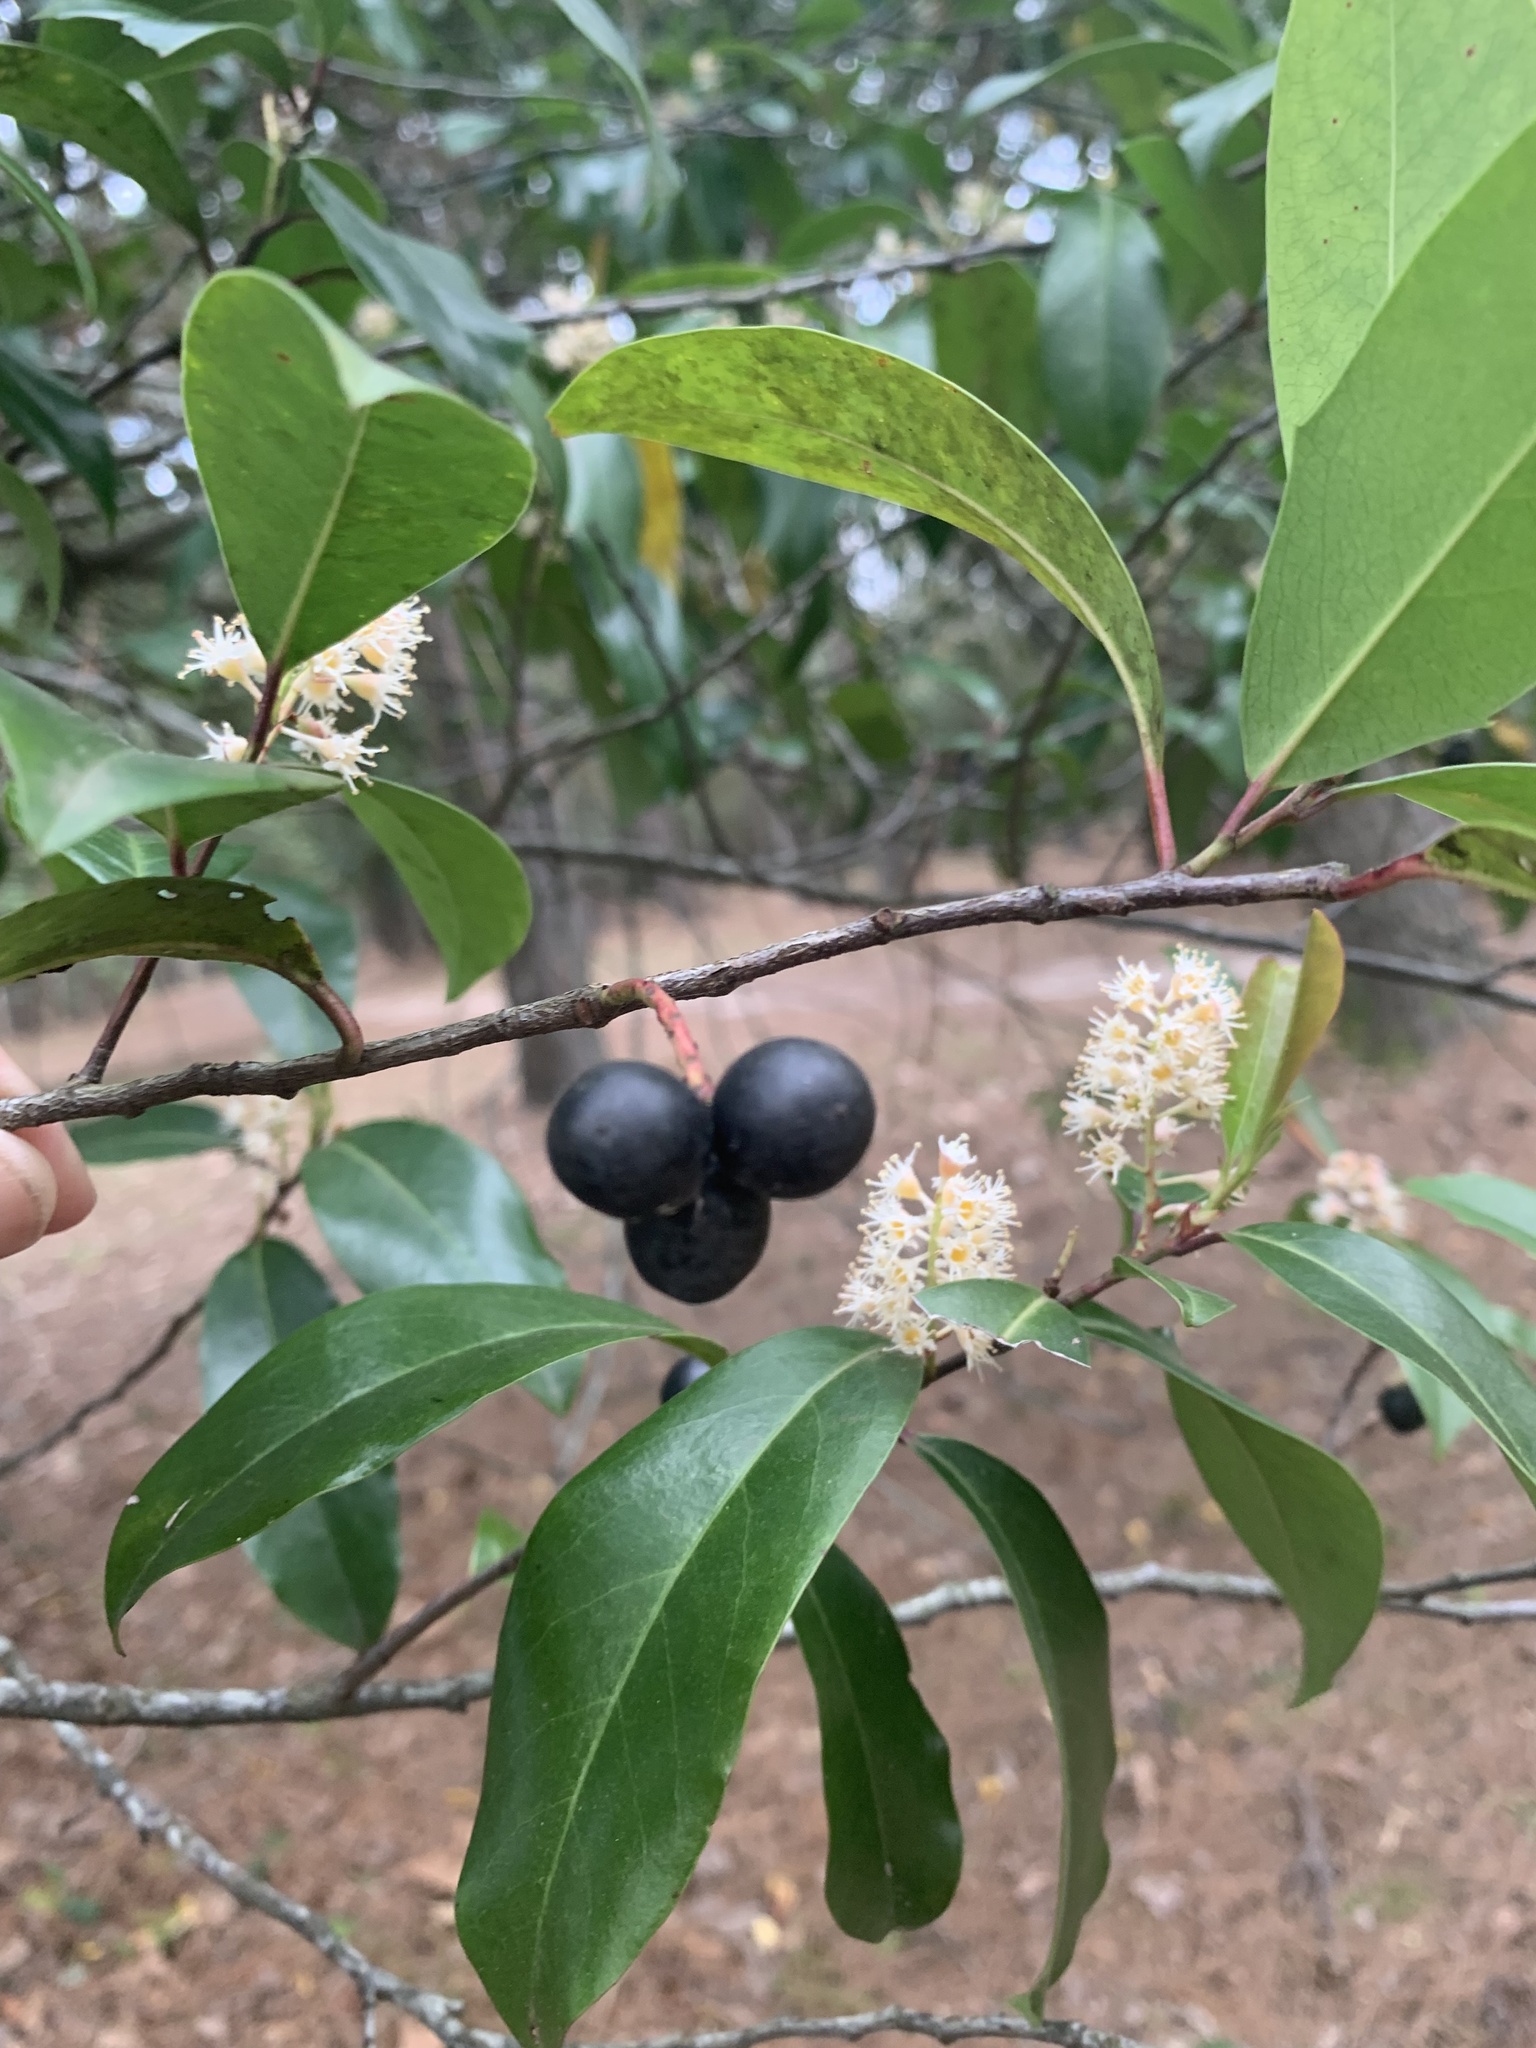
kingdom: Plantae
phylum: Tracheophyta
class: Magnoliopsida
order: Rosales
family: Rosaceae
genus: Prunus
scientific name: Prunus caroliniana
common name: Carolina laurel cherry
